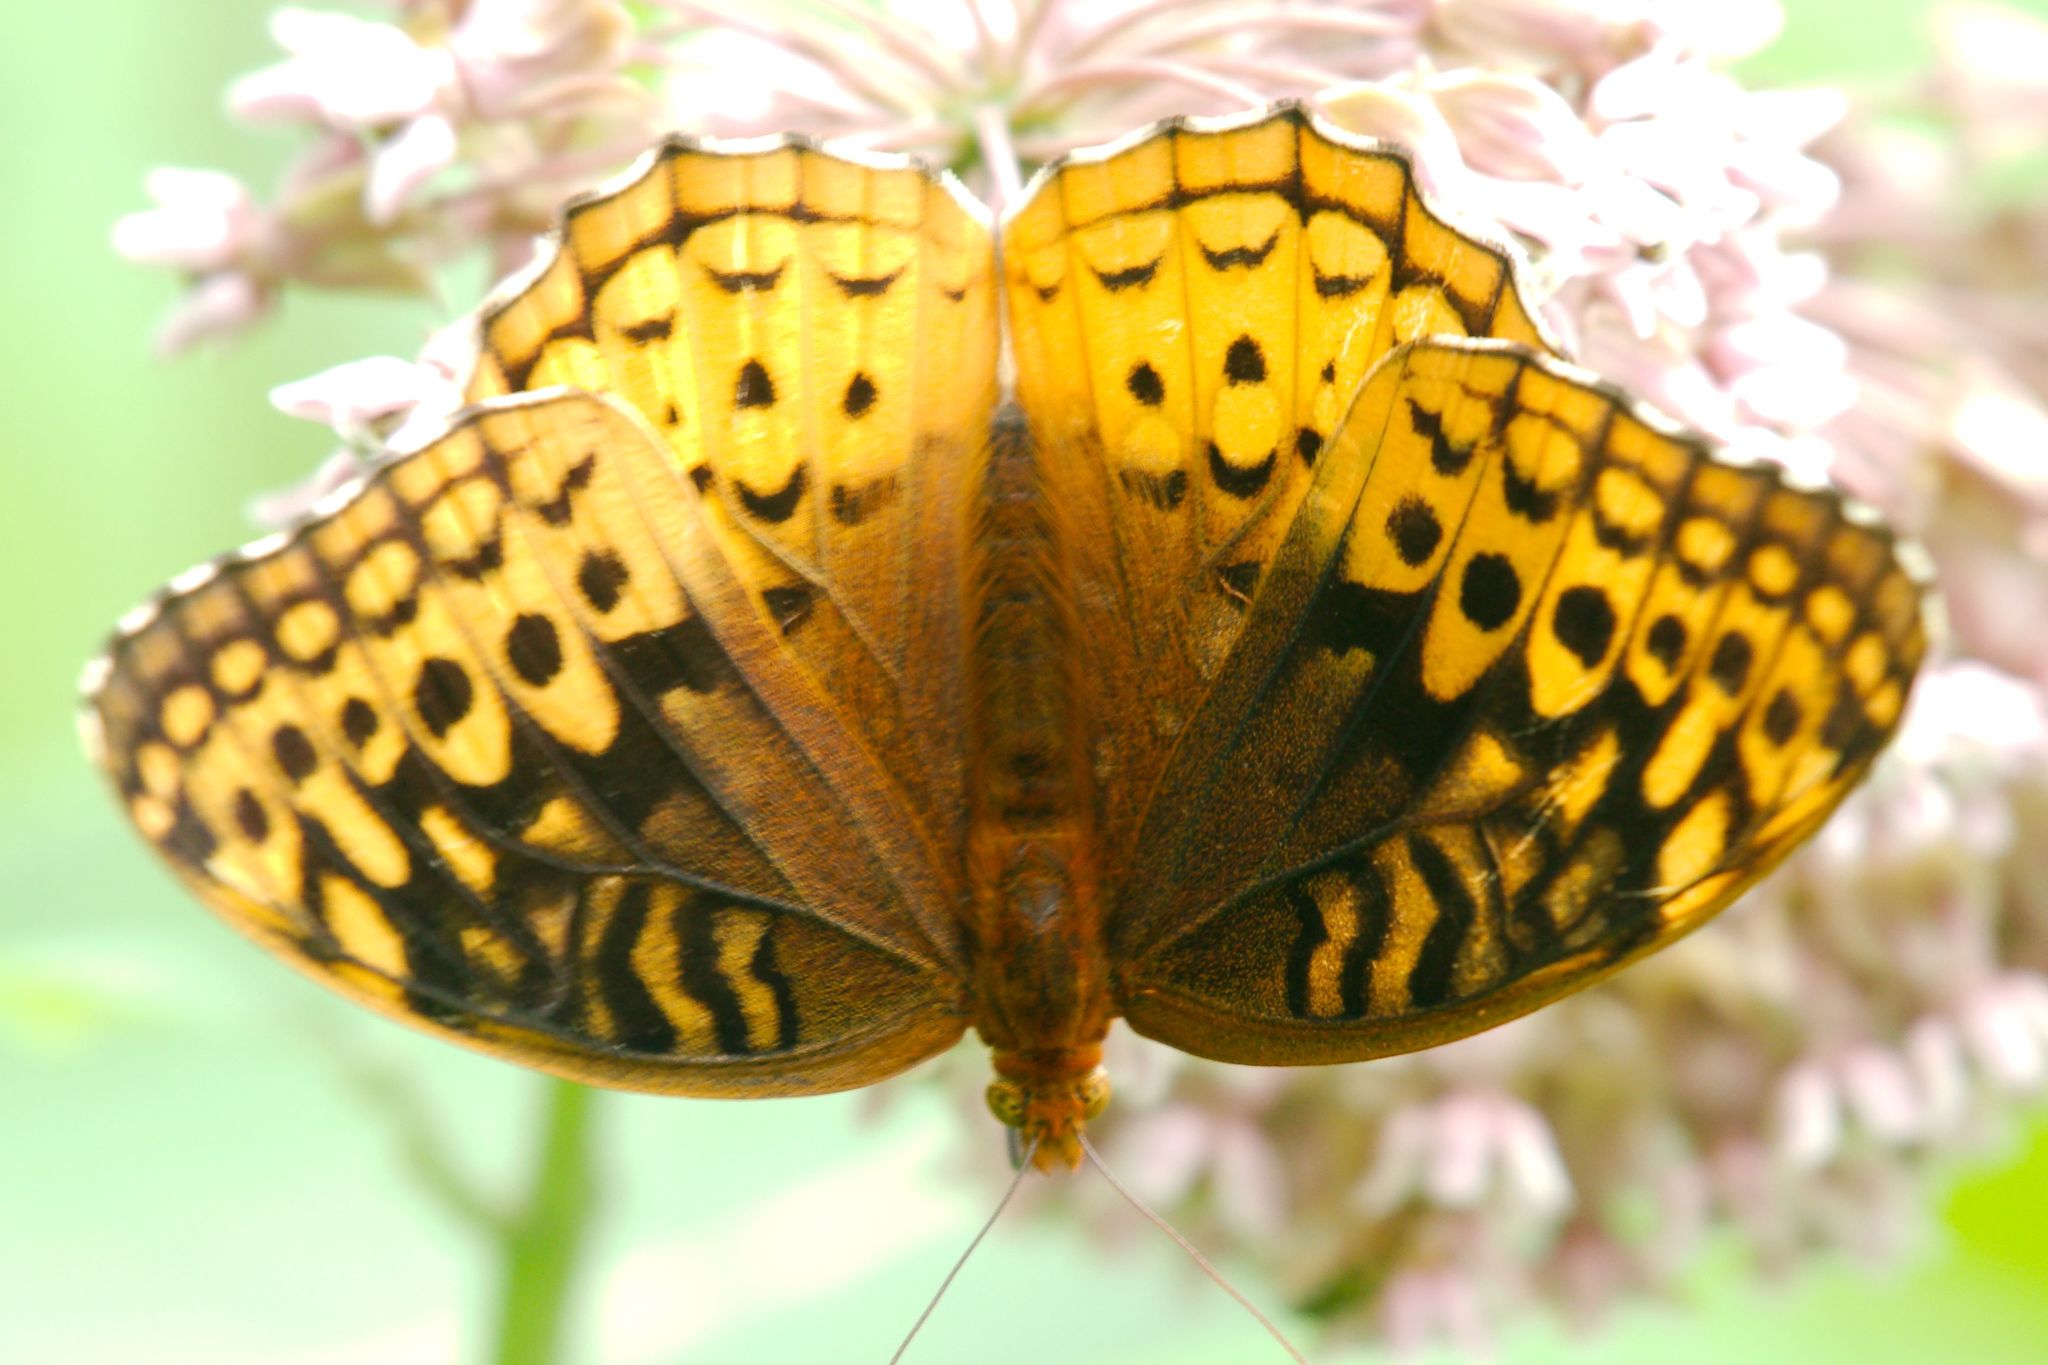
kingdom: Animalia
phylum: Arthropoda
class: Insecta
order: Lepidoptera
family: Nymphalidae
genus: Speyeria
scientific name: Speyeria cybele
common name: Great spangled fritillary
